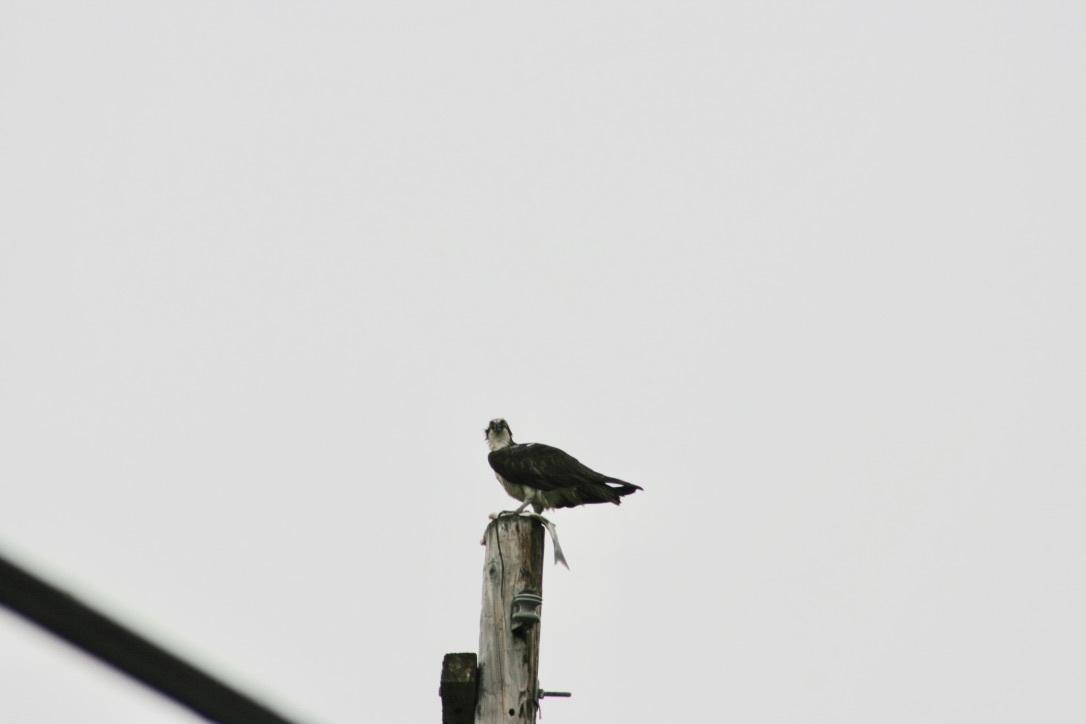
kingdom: Animalia
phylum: Chordata
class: Aves
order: Accipitriformes
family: Pandionidae
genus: Pandion
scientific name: Pandion haliaetus
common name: Osprey
